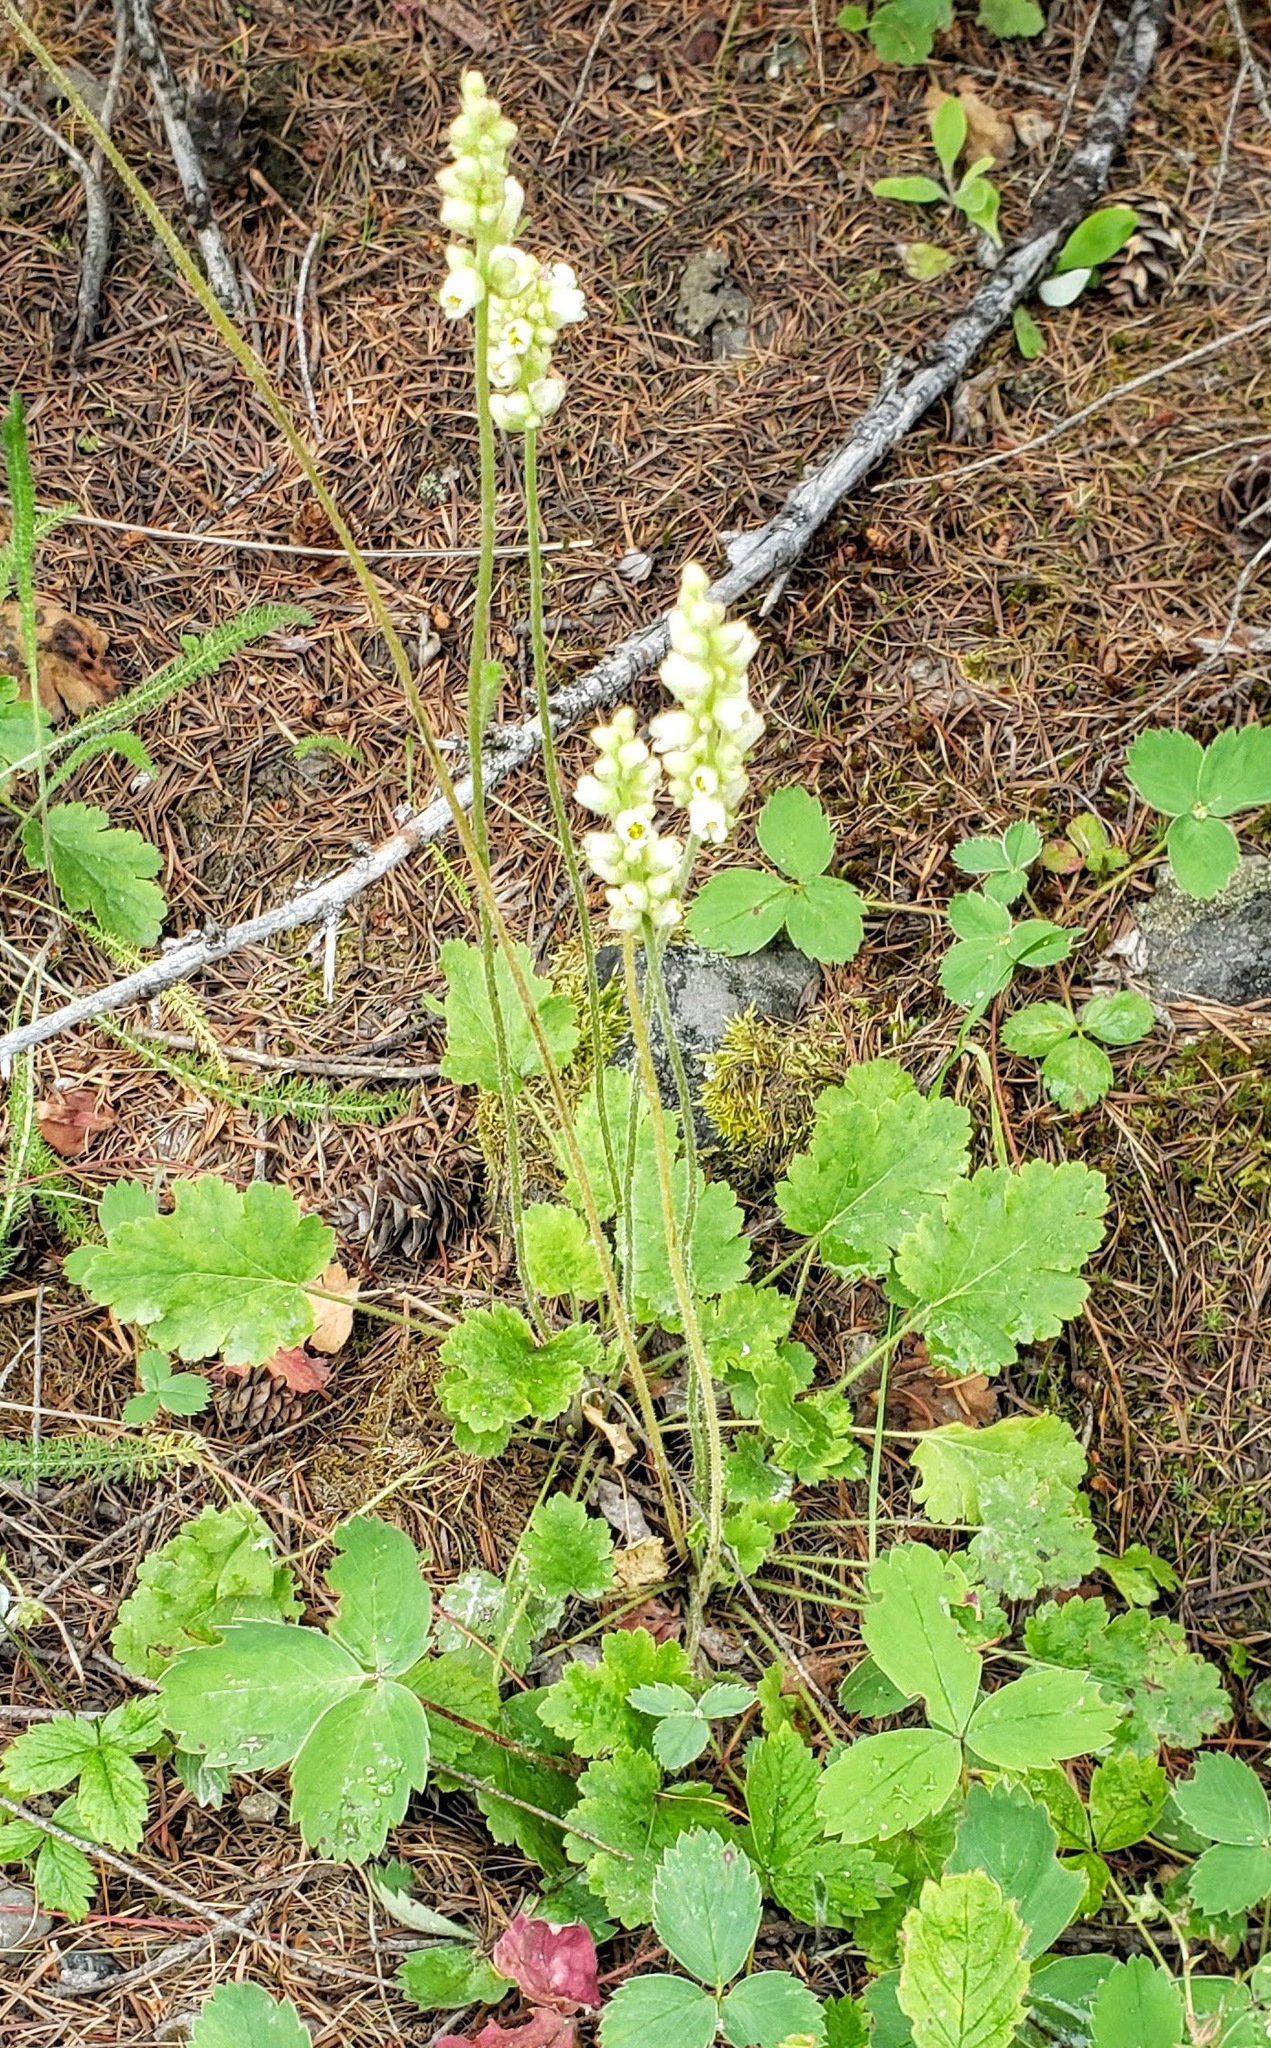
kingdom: Plantae
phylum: Tracheophyta
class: Magnoliopsida
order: Saxifragales
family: Saxifragaceae
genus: Heuchera
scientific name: Heuchera cylindrica
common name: Mat alumroot
